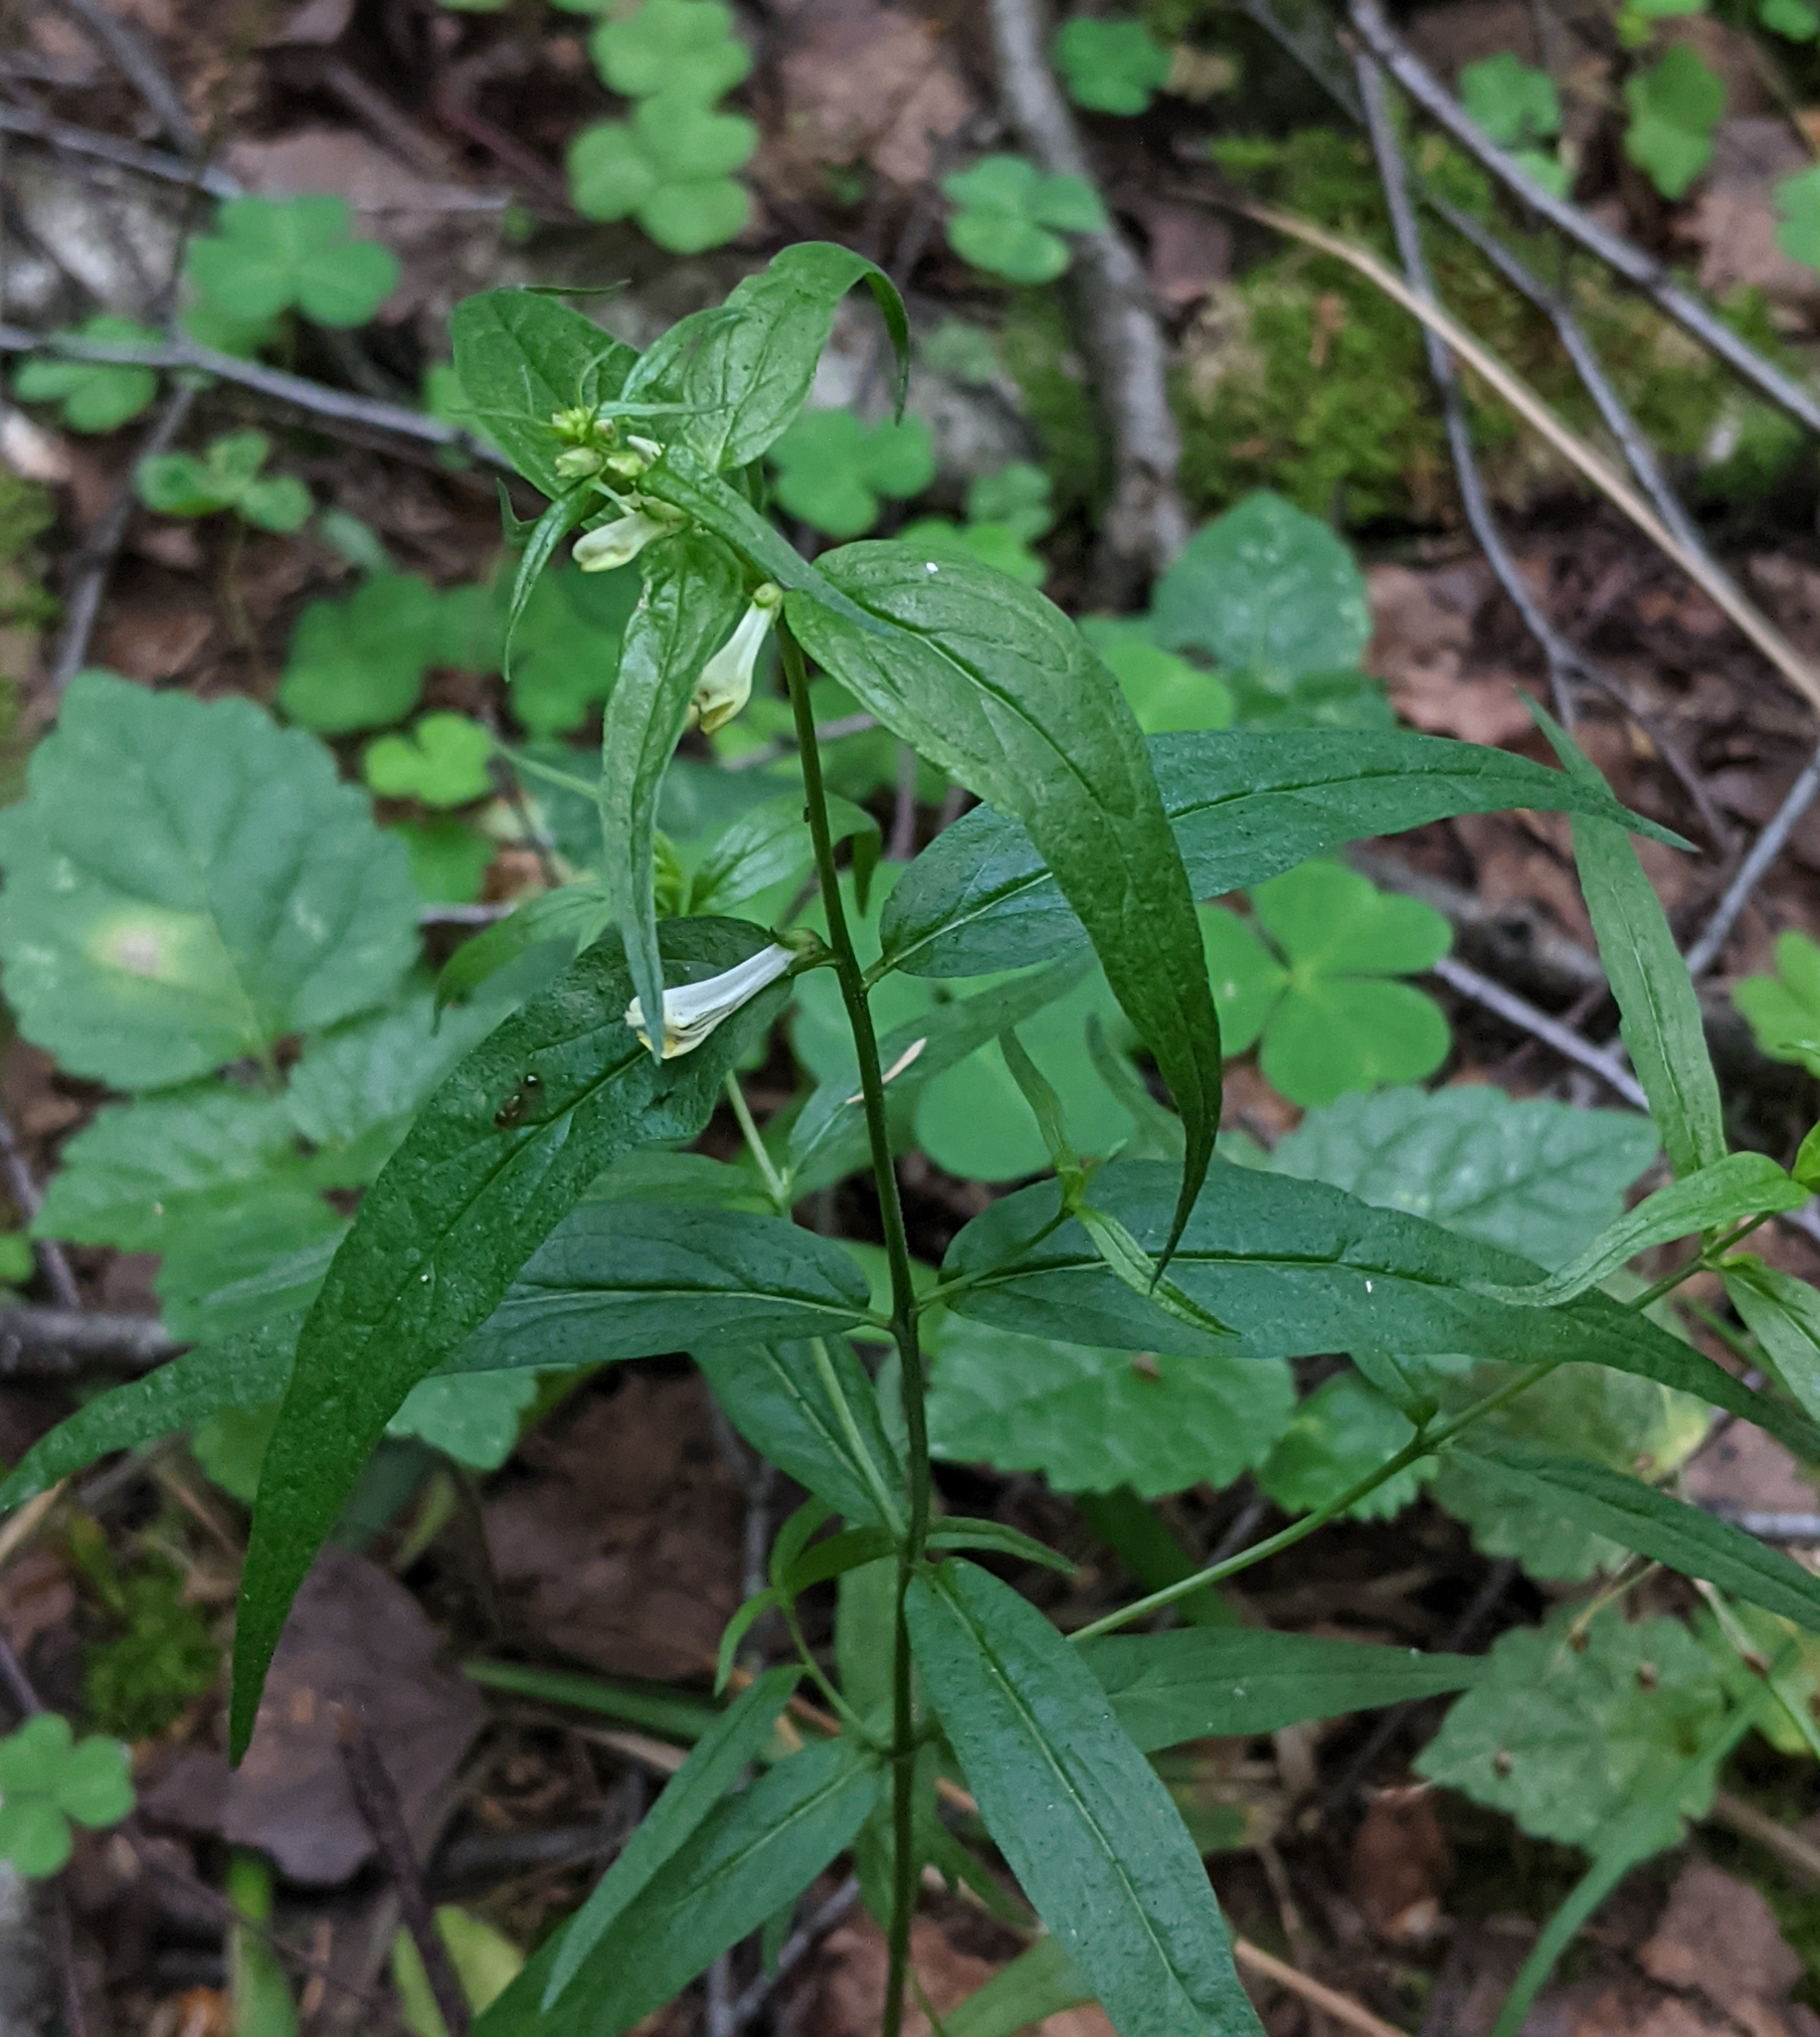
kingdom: Plantae
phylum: Tracheophyta
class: Magnoliopsida
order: Lamiales
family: Orobanchaceae
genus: Melampyrum
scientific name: Melampyrum pratense
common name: Common cow-wheat
